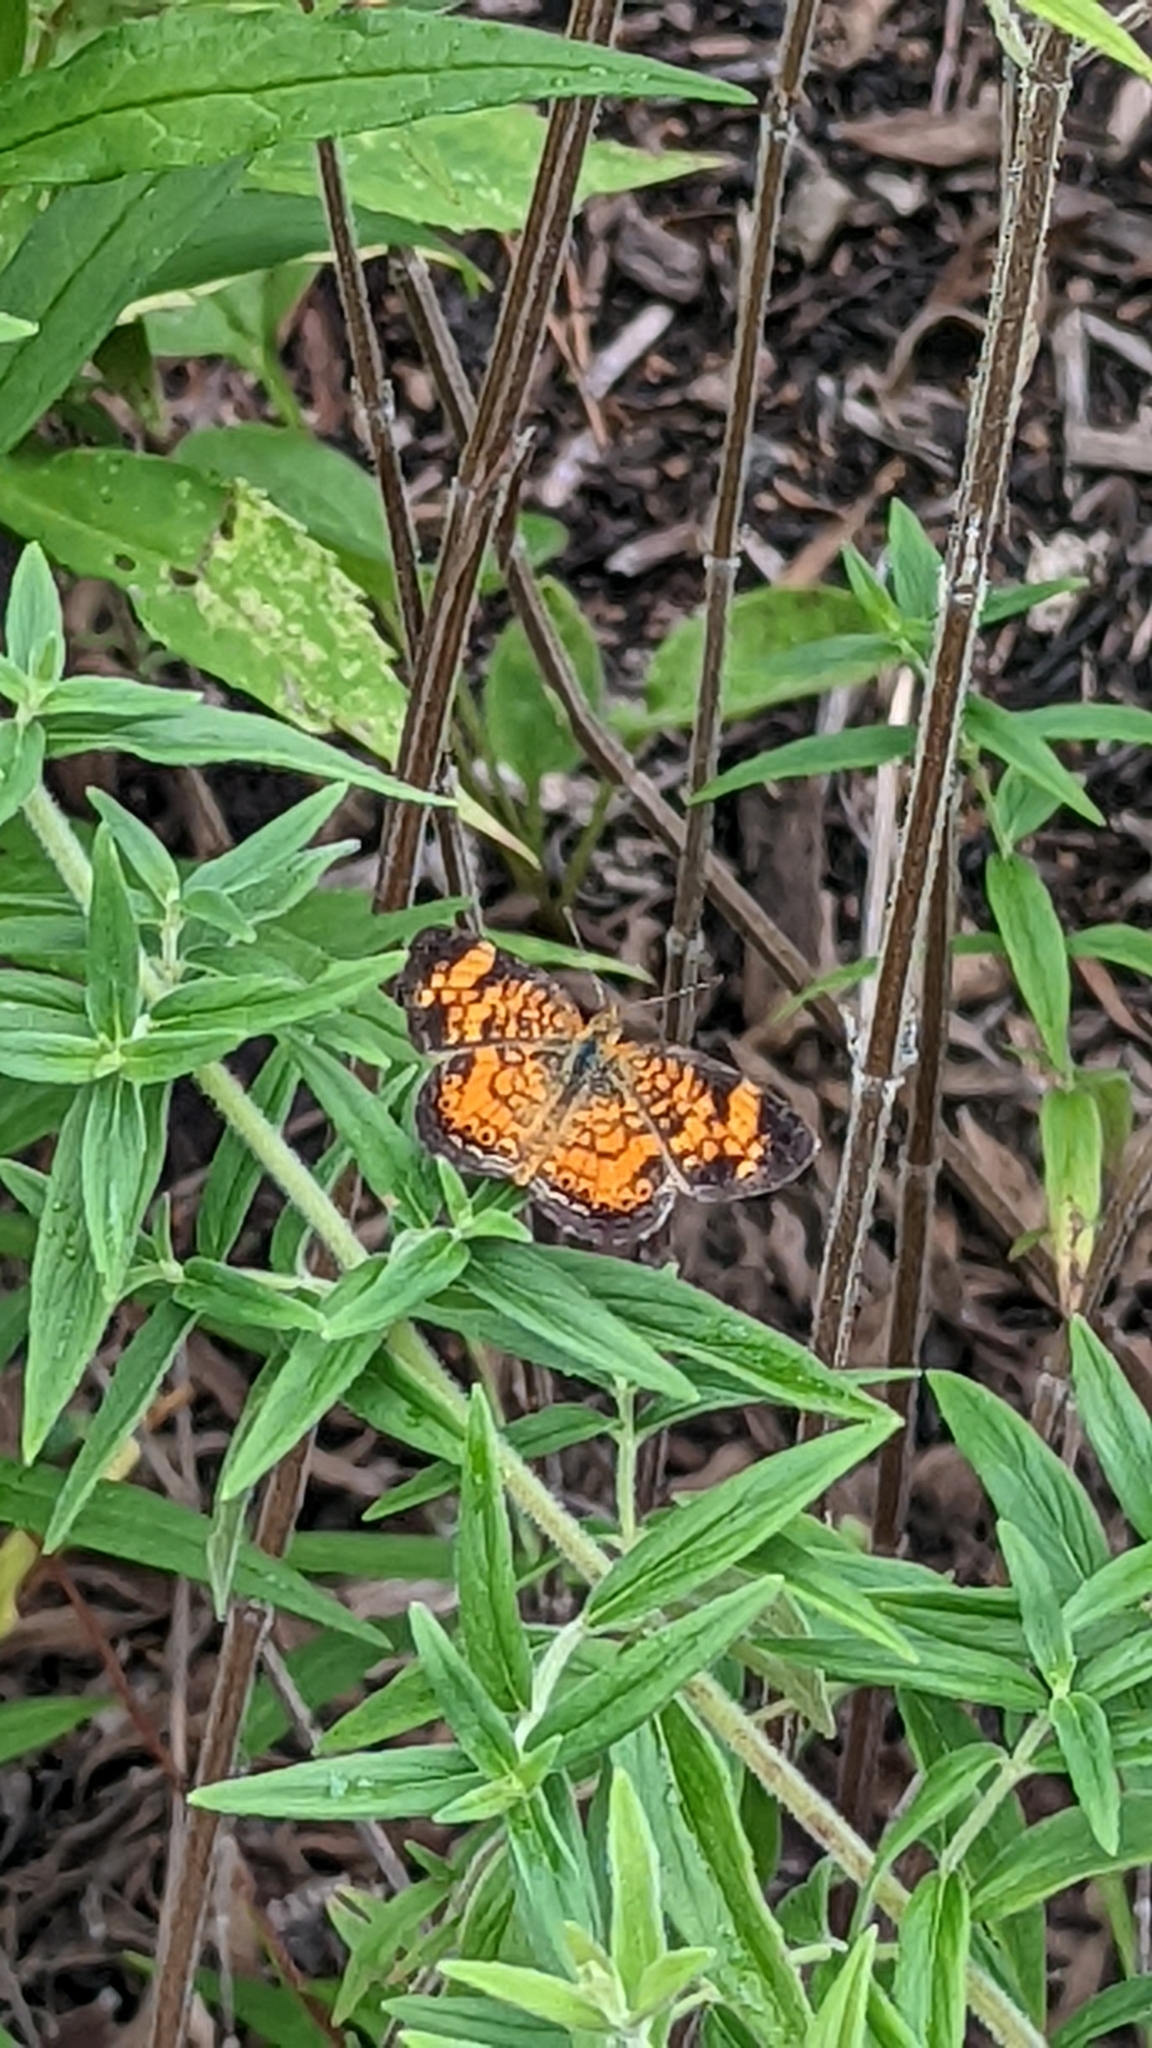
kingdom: Animalia
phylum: Arthropoda
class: Insecta
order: Lepidoptera
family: Nymphalidae
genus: Phyciodes
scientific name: Phyciodes tharos
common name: Pearl crescent
